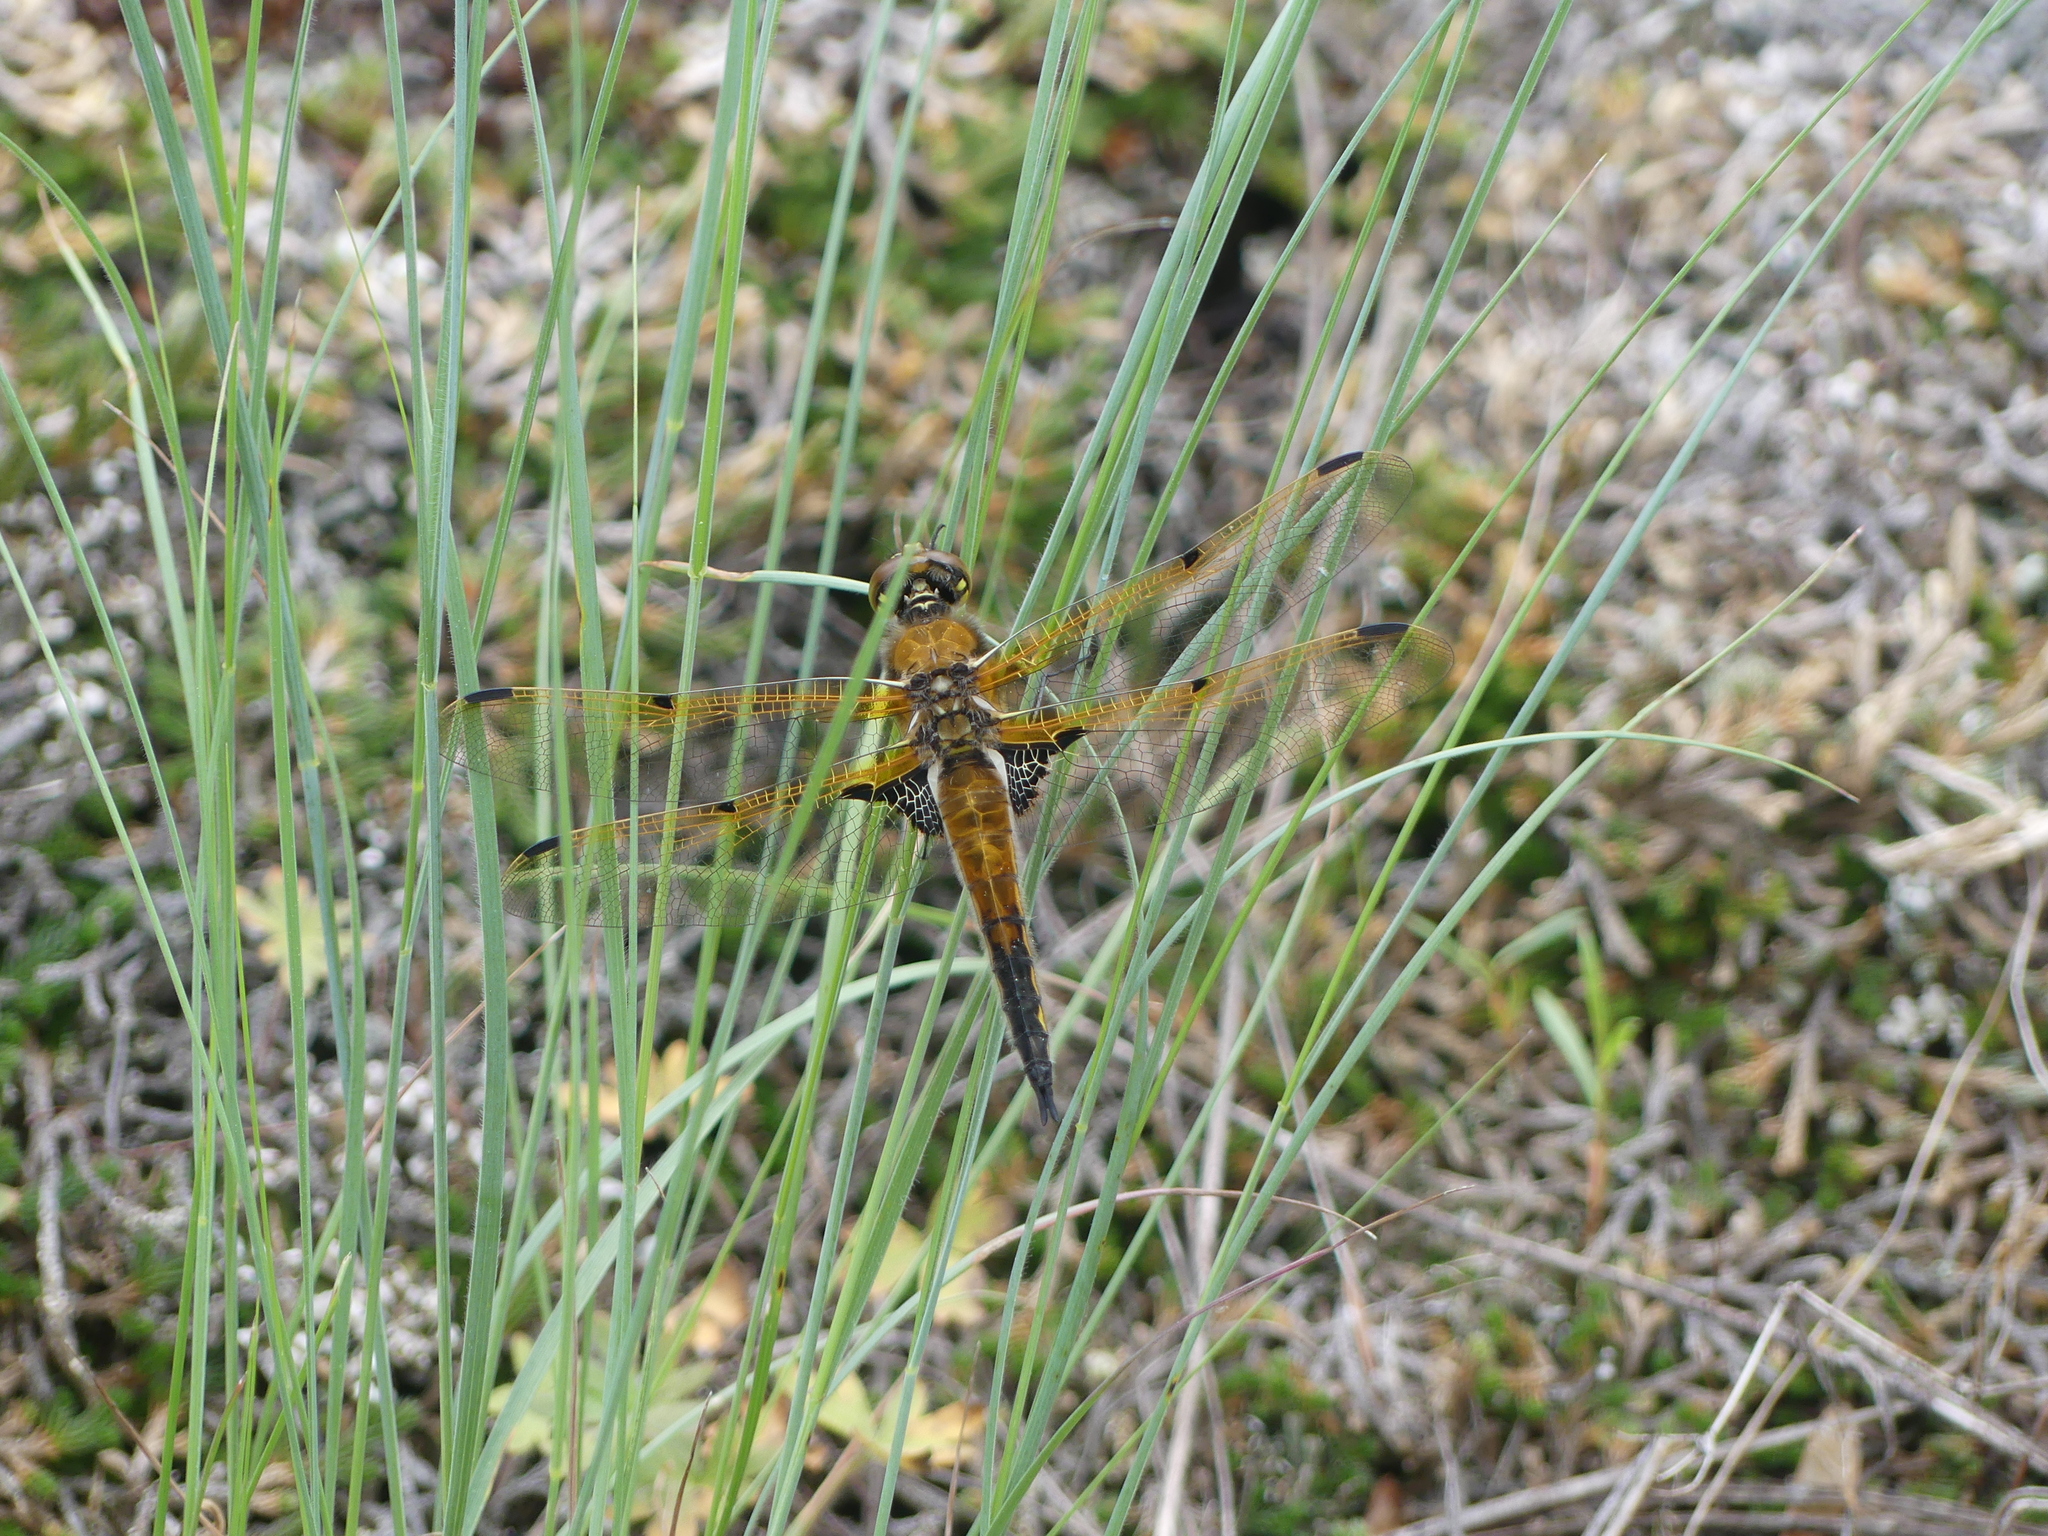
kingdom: Animalia
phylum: Arthropoda
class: Insecta
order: Odonata
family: Libellulidae
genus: Libellula
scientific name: Libellula quadrimaculata
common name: Four-spotted chaser
